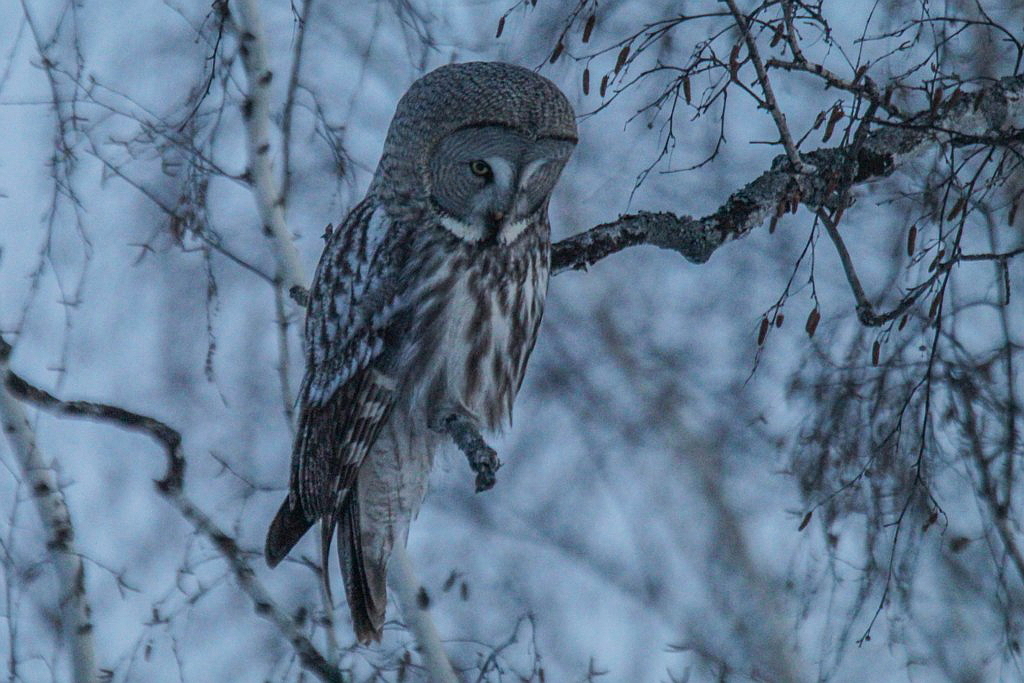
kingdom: Animalia
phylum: Chordata
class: Aves
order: Strigiformes
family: Strigidae
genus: Strix
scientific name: Strix nebulosa
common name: Great grey owl
